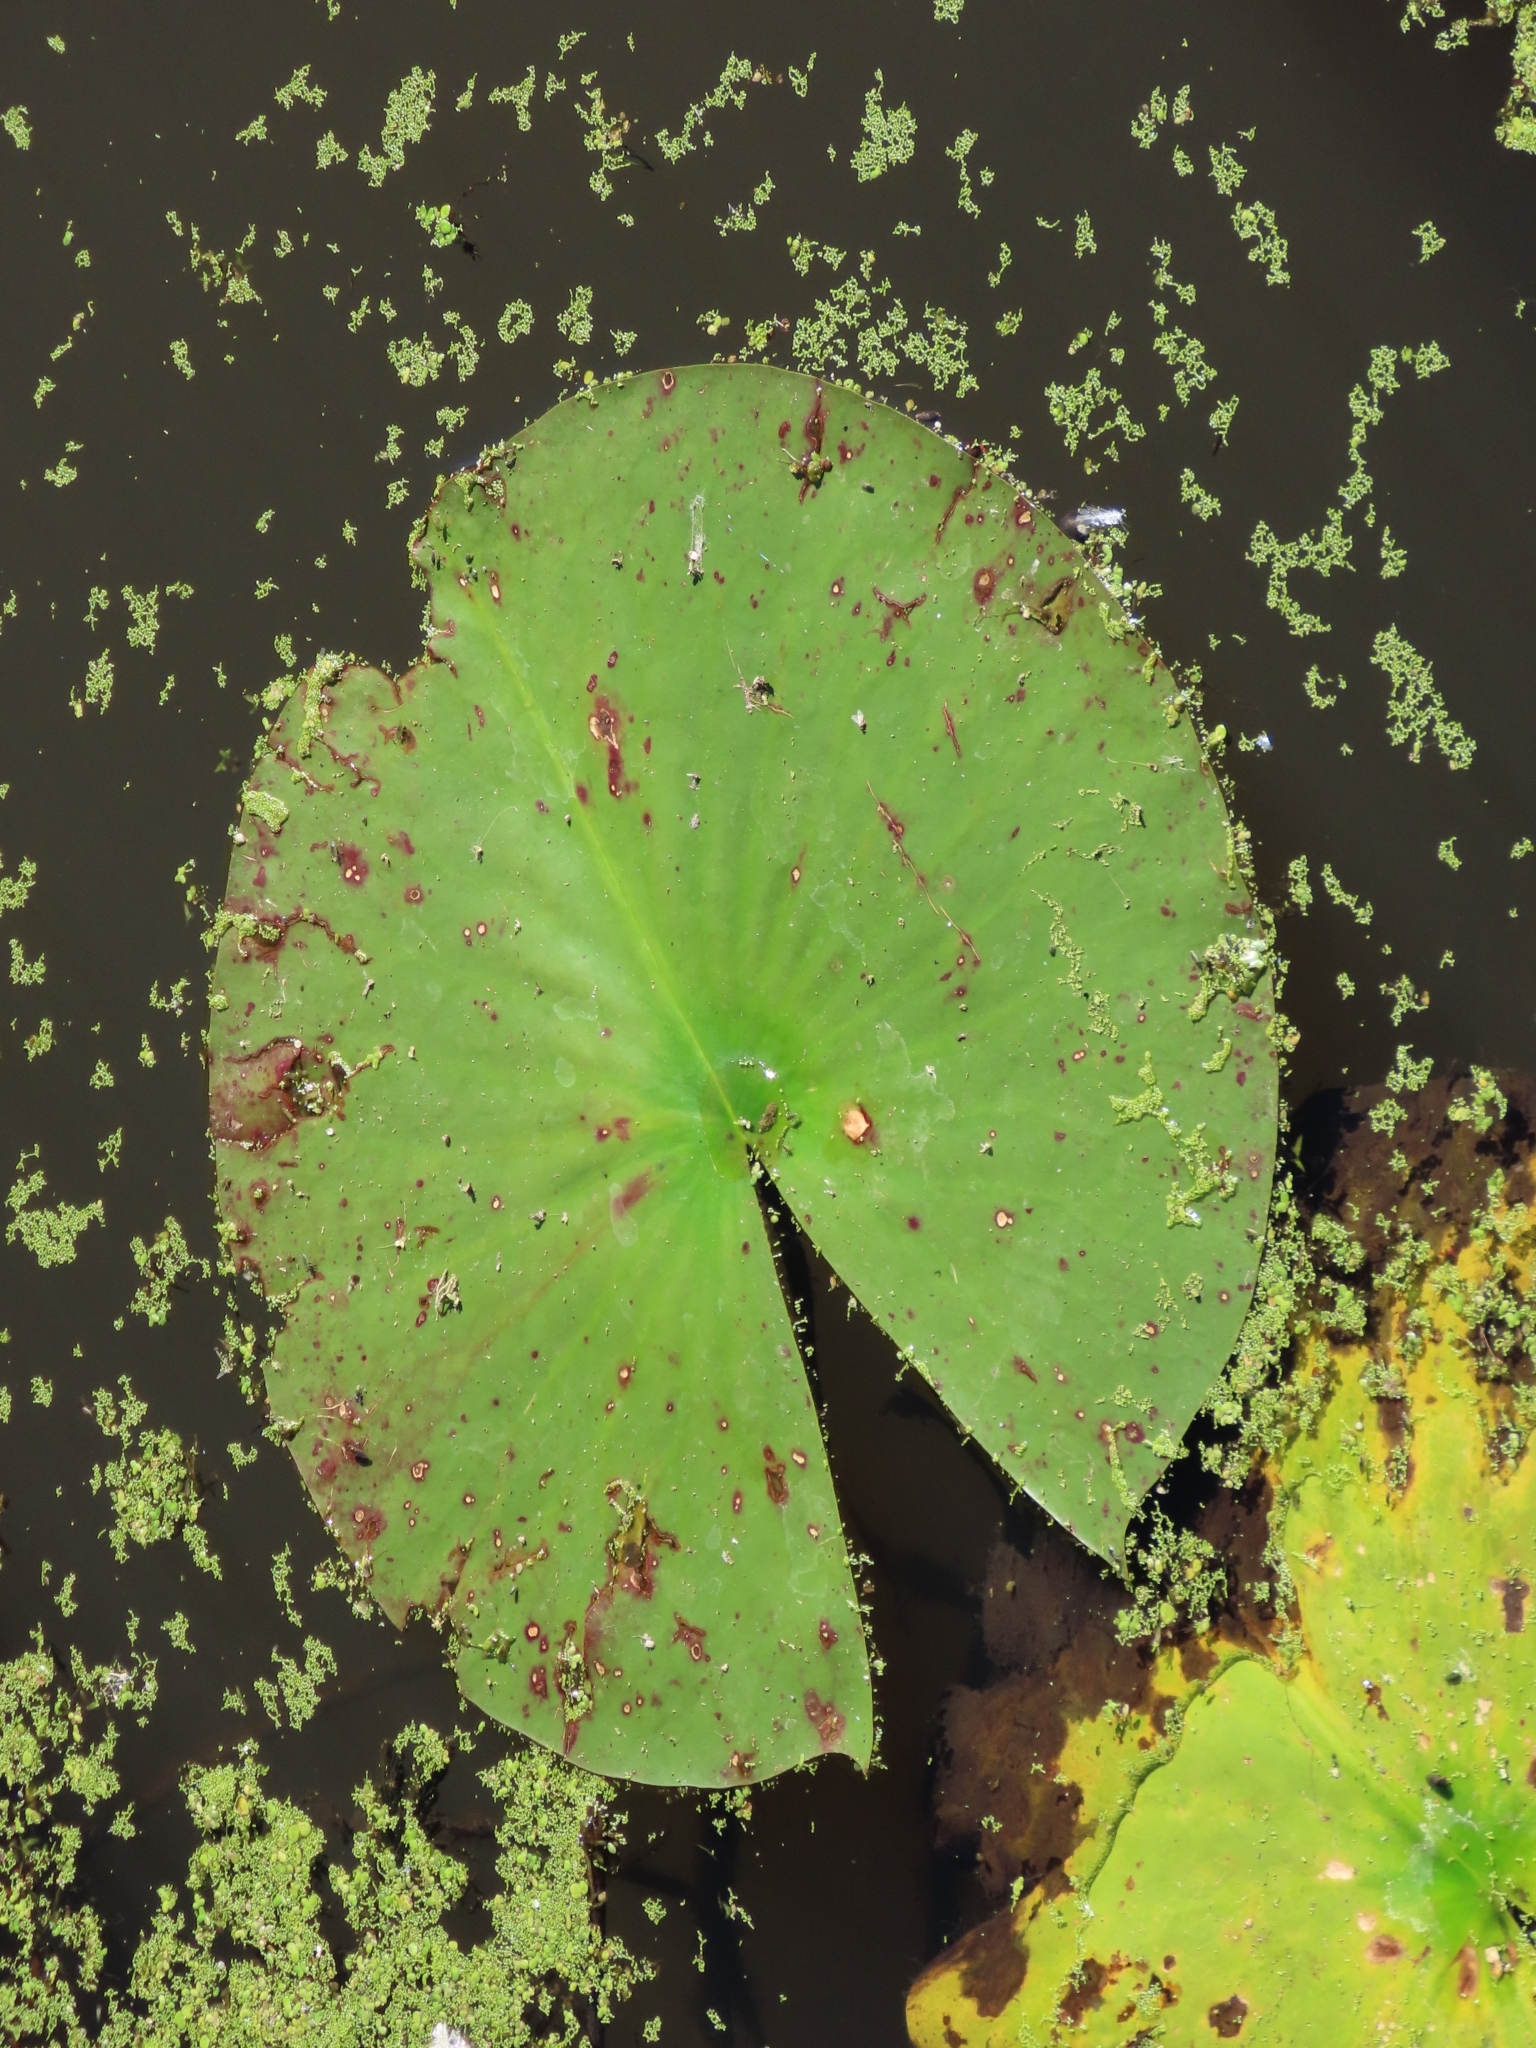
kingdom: Plantae
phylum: Tracheophyta
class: Magnoliopsida
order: Nymphaeales
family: Nymphaeaceae
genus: Nymphaea
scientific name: Nymphaea odorata
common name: Fragrant water-lily
